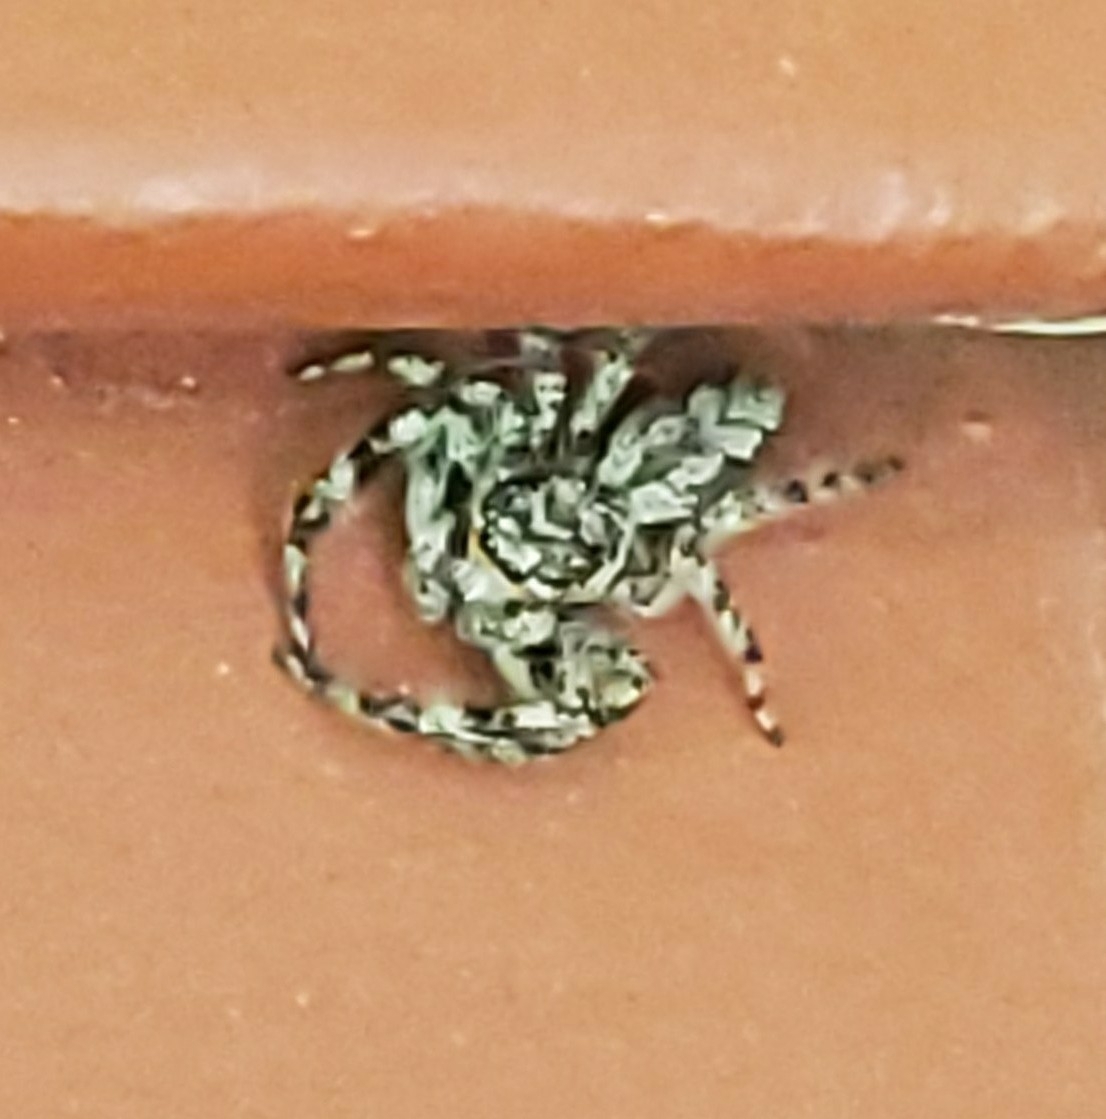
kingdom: Animalia
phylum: Arthropoda
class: Arachnida
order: Araneae
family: Salticidae
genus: Platycryptus
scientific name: Platycryptus undatus
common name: Tan jumping spider
